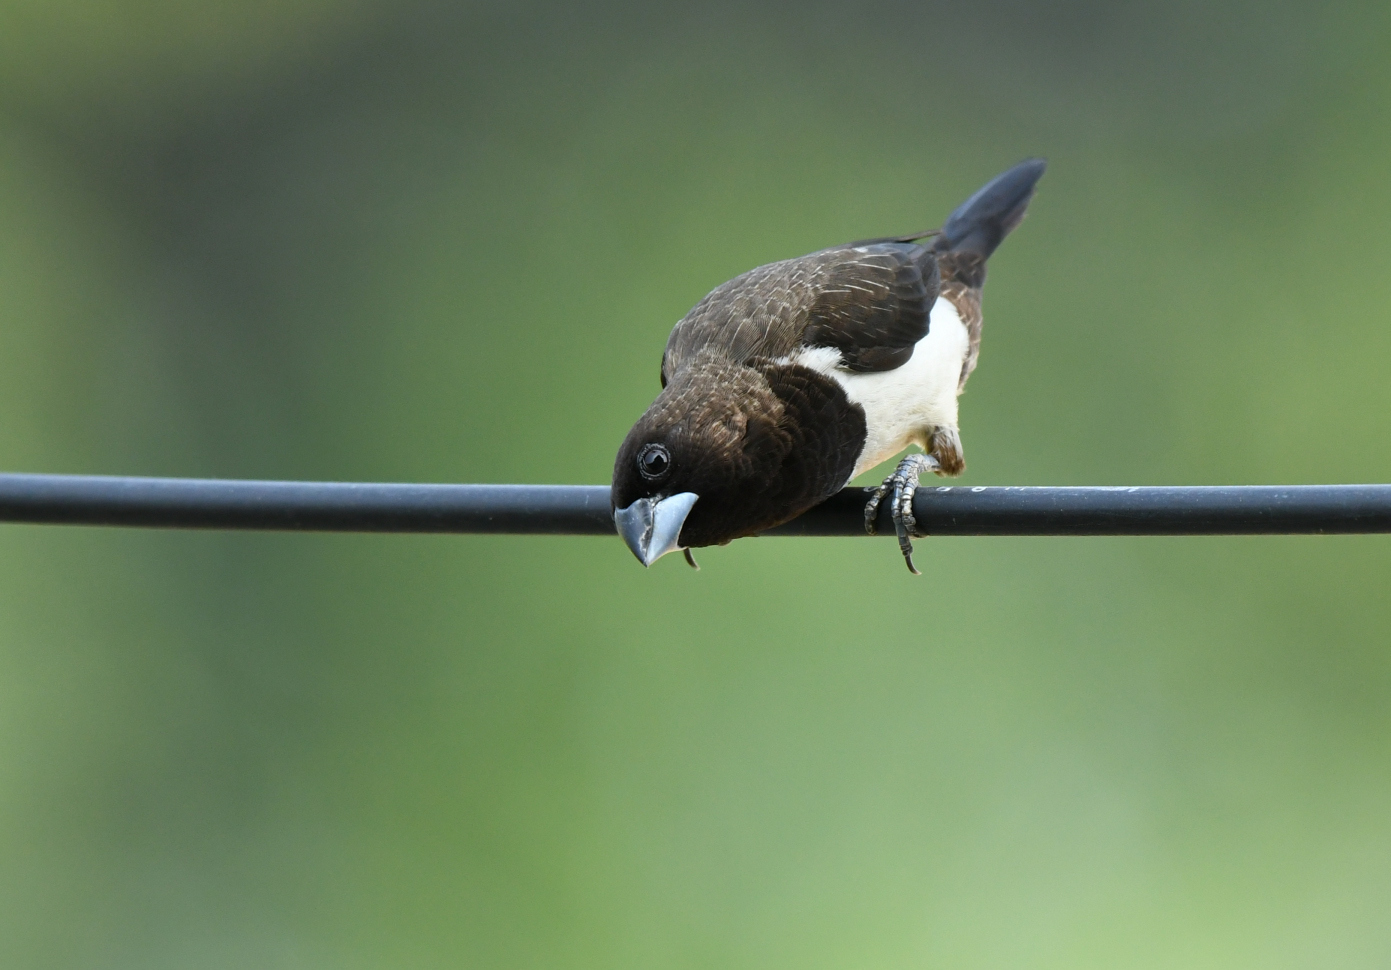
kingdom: Animalia
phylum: Chordata
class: Aves
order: Passeriformes
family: Estrildidae
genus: Lonchura
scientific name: Lonchura striata
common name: White-rumped munia
